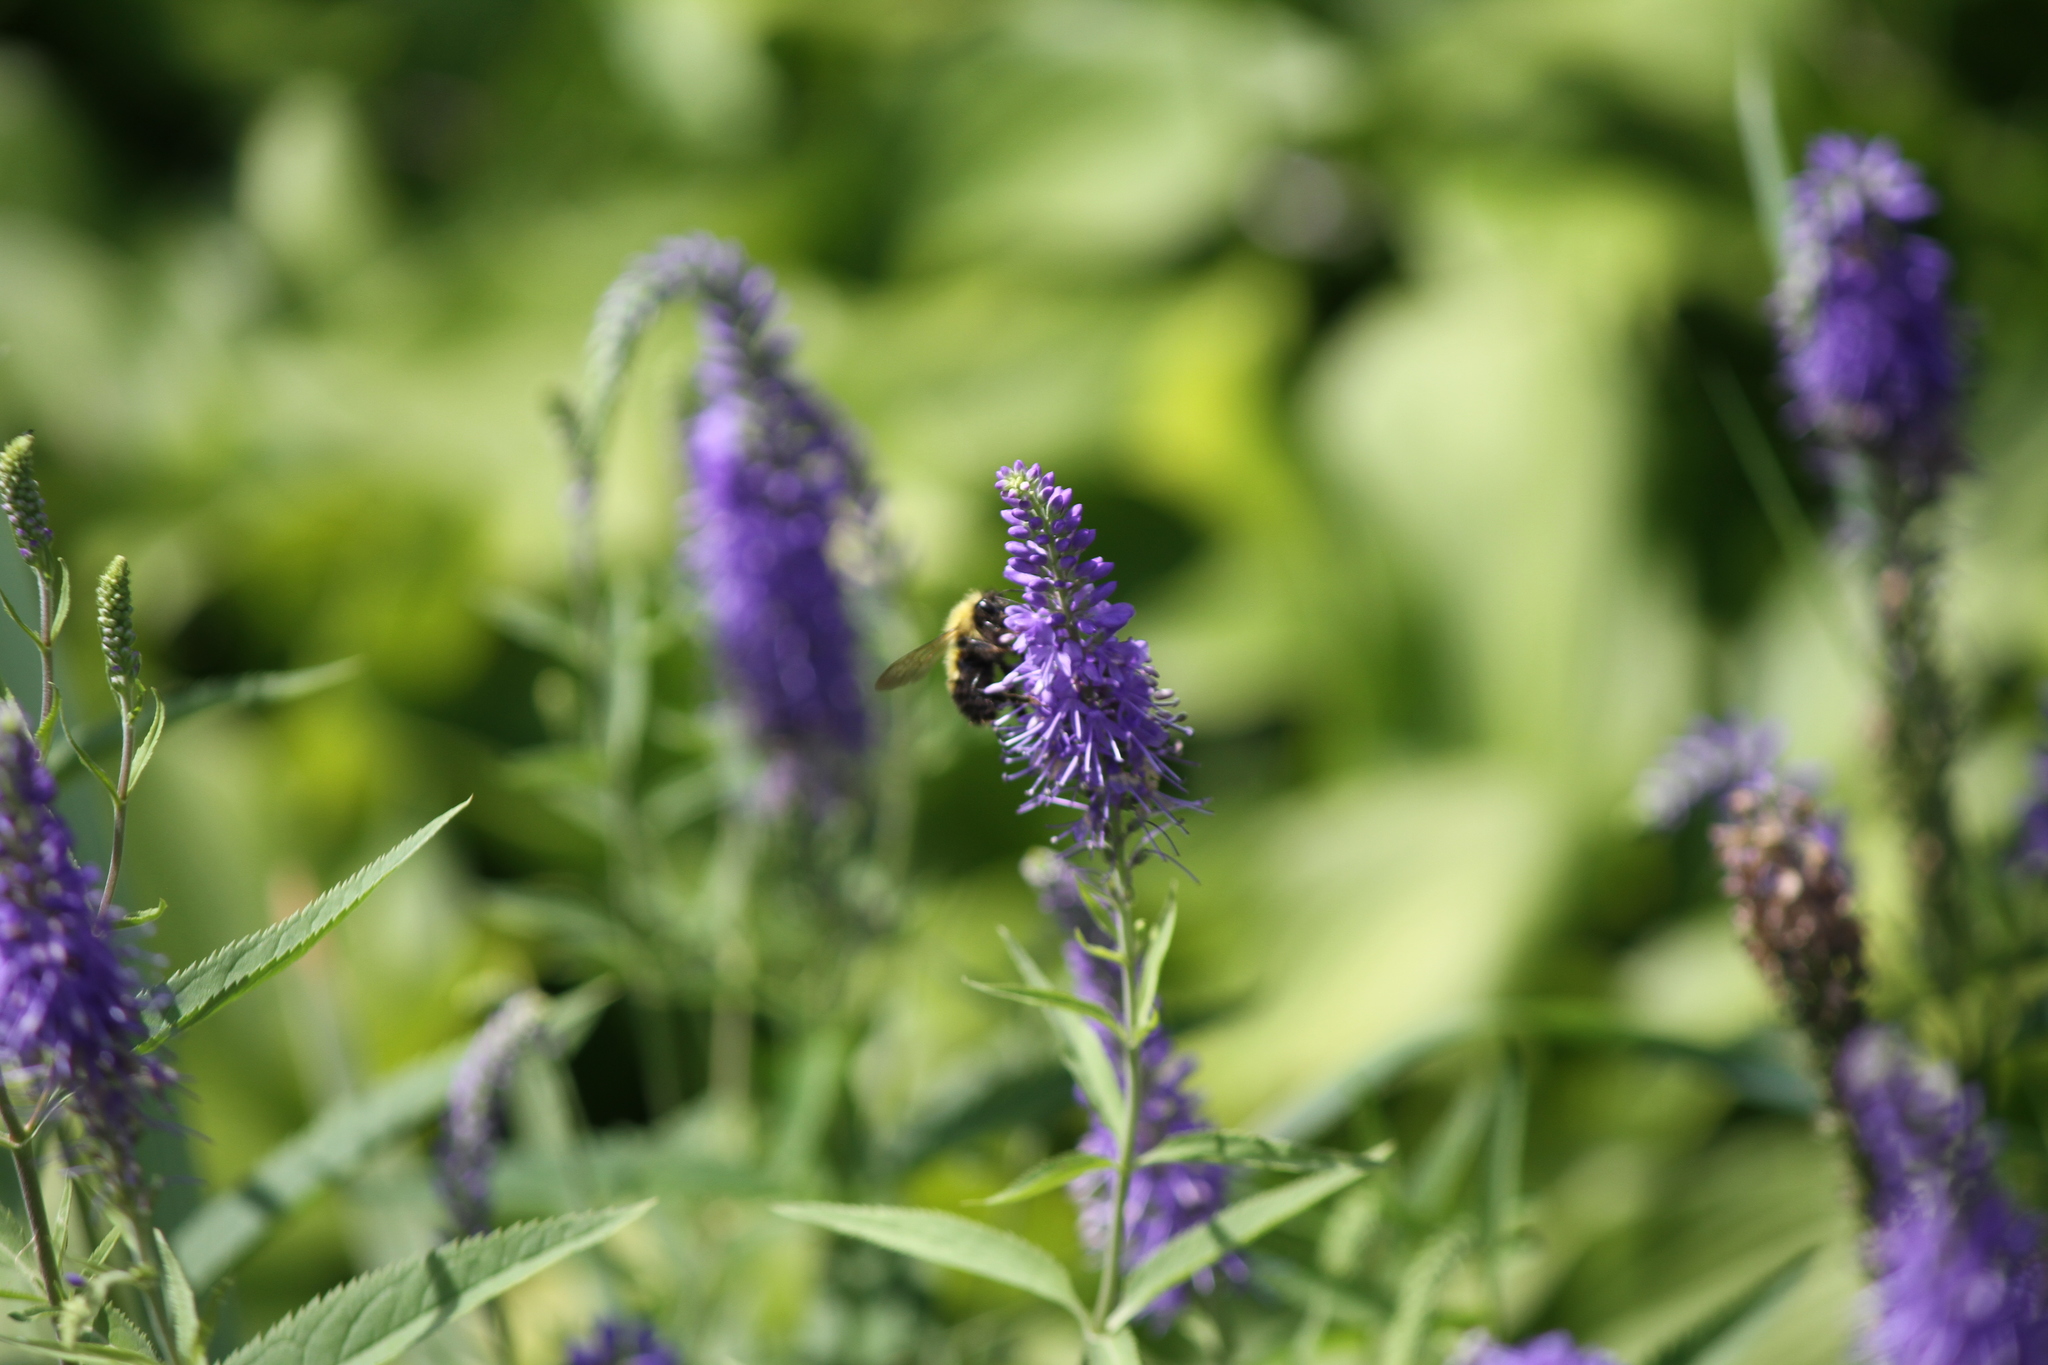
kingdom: Animalia
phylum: Arthropoda
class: Insecta
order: Hymenoptera
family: Apidae
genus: Bombus
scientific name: Bombus perplexus
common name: Confusing bumble bee
